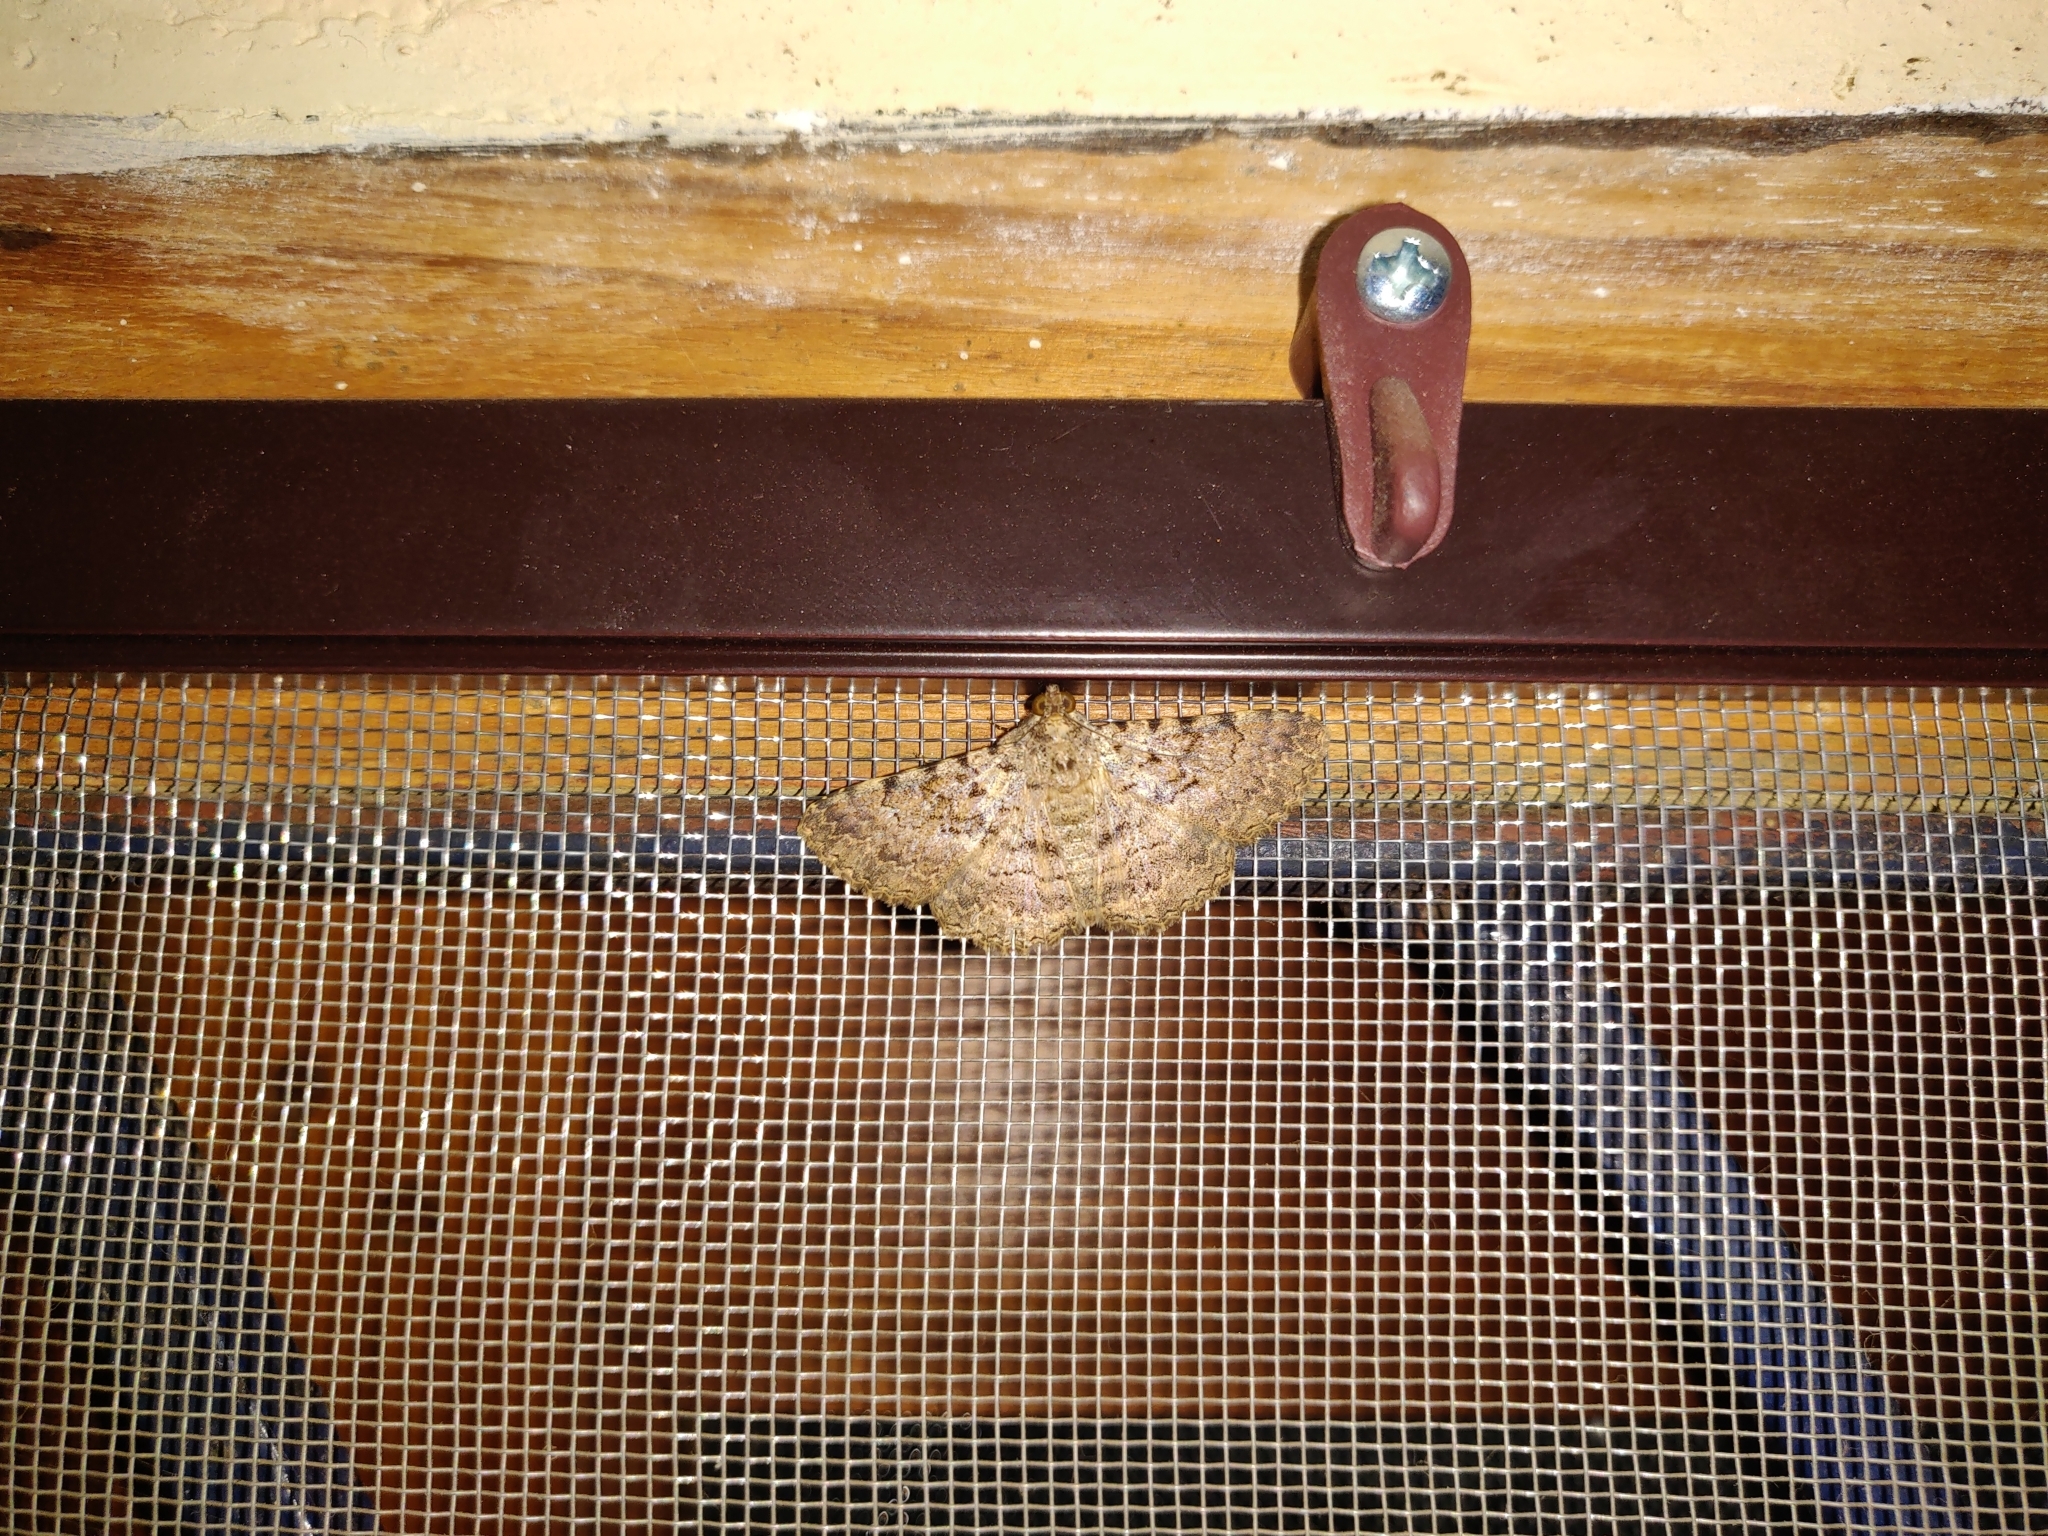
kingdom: Animalia
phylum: Arthropoda
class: Insecta
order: Lepidoptera
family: Erebidae
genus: Polydesma
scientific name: Polydesma boarmoides
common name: Moth
